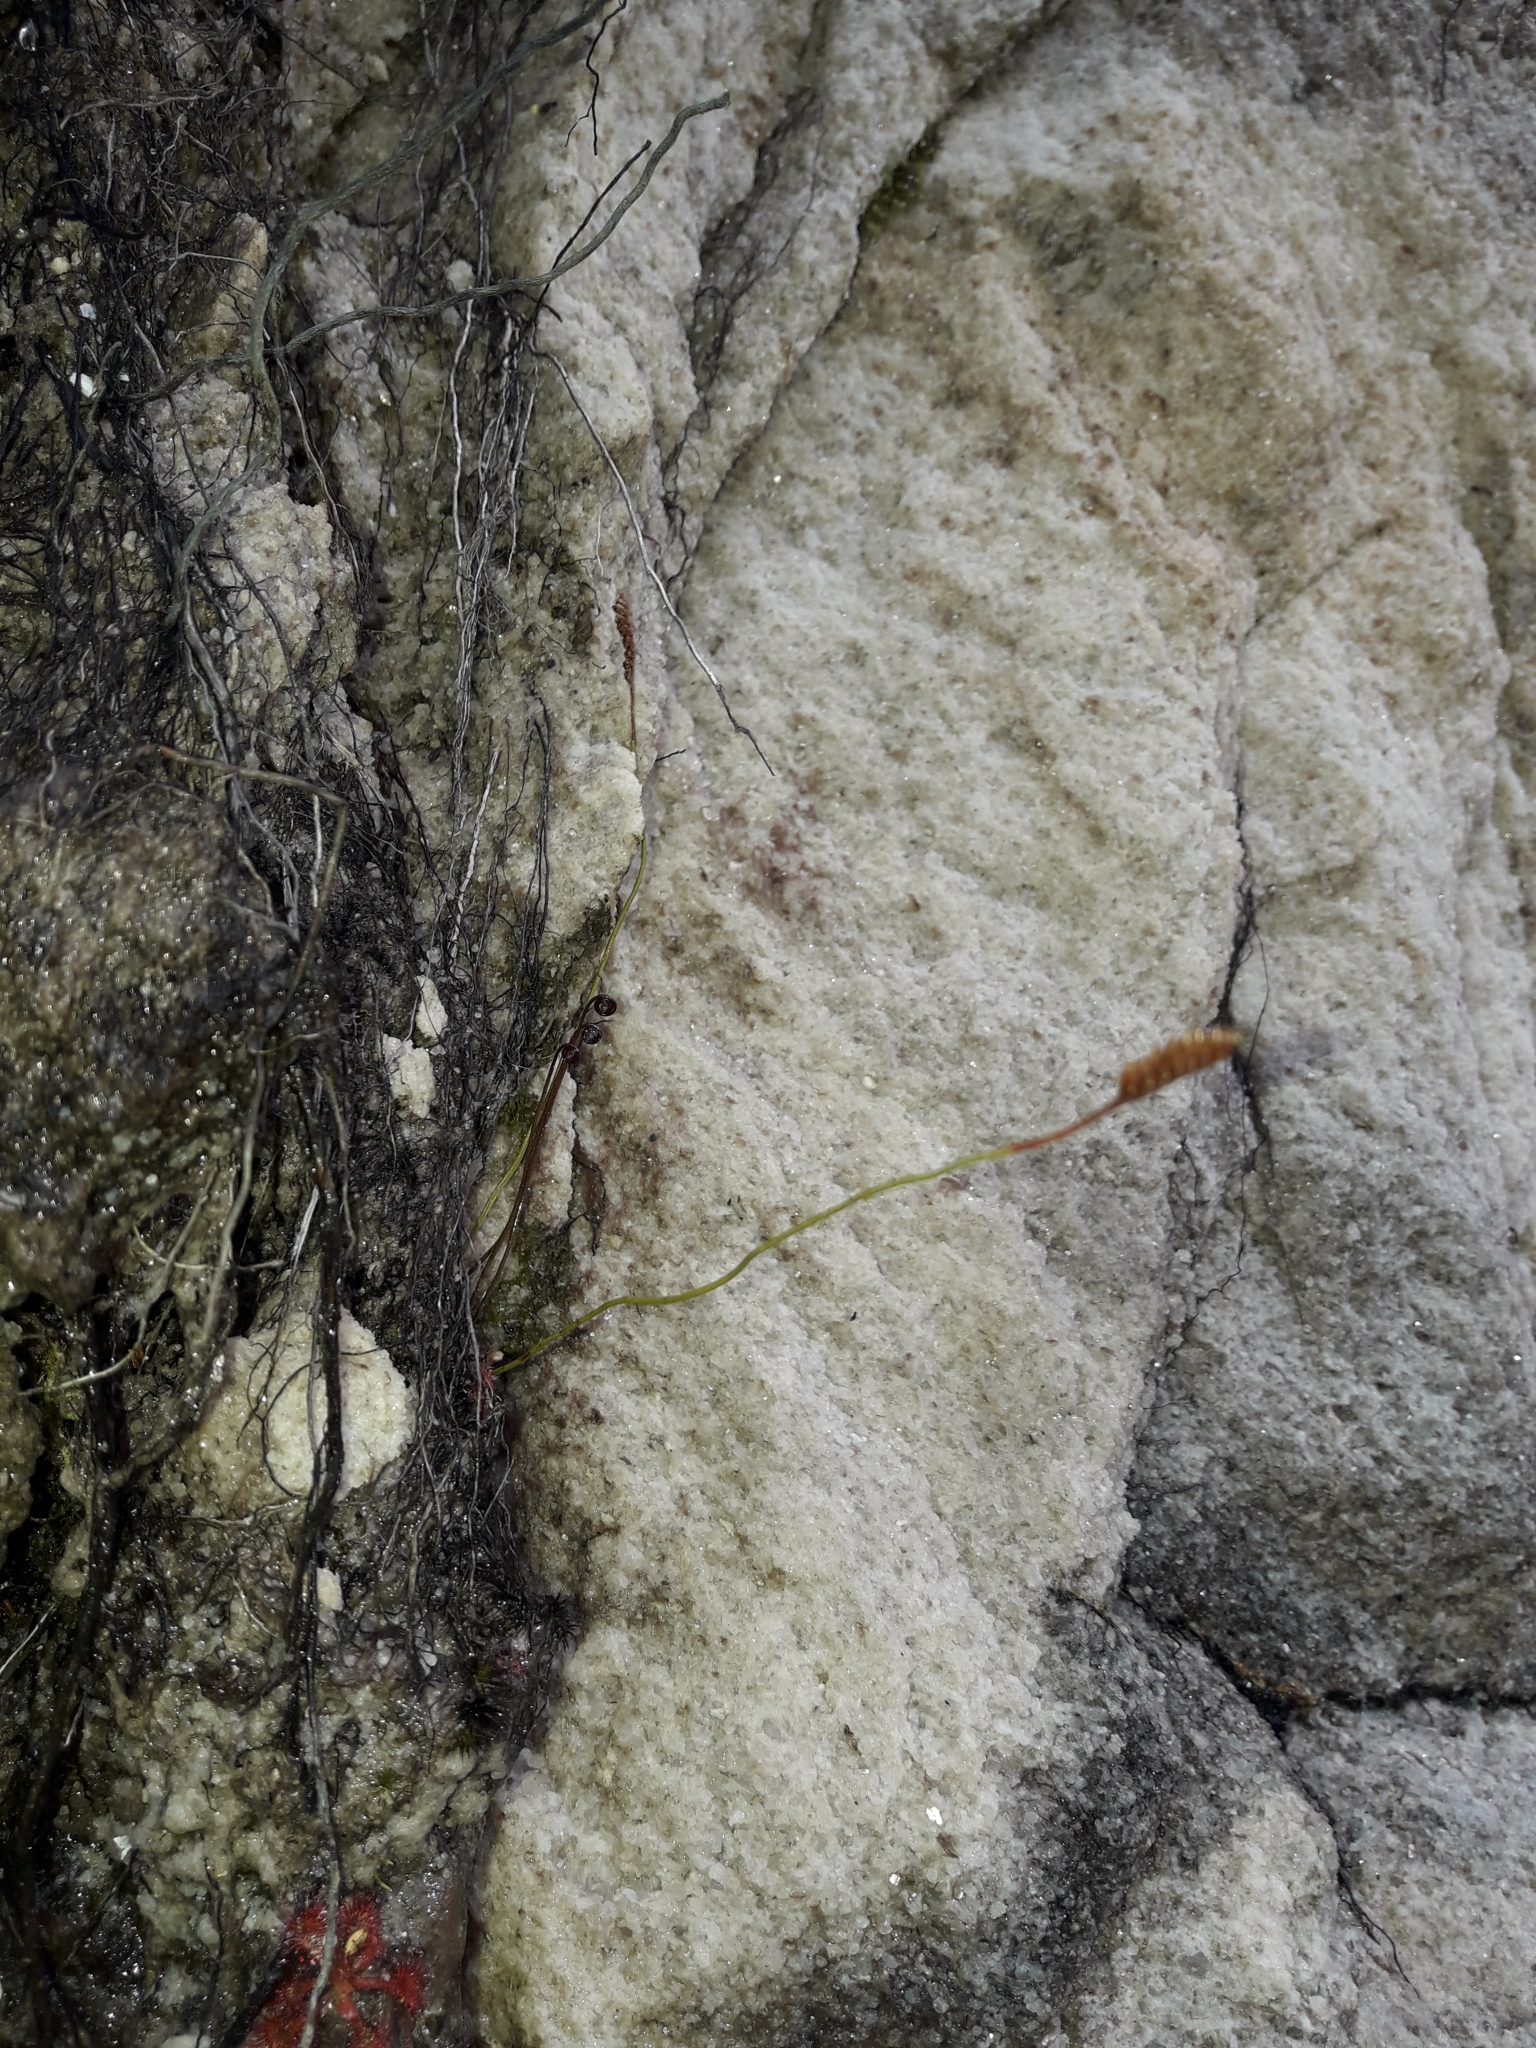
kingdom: Plantae
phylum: Tracheophyta
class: Polypodiopsida
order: Schizaeales
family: Schizaeaceae
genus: Microschizaea
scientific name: Microschizaea australis
